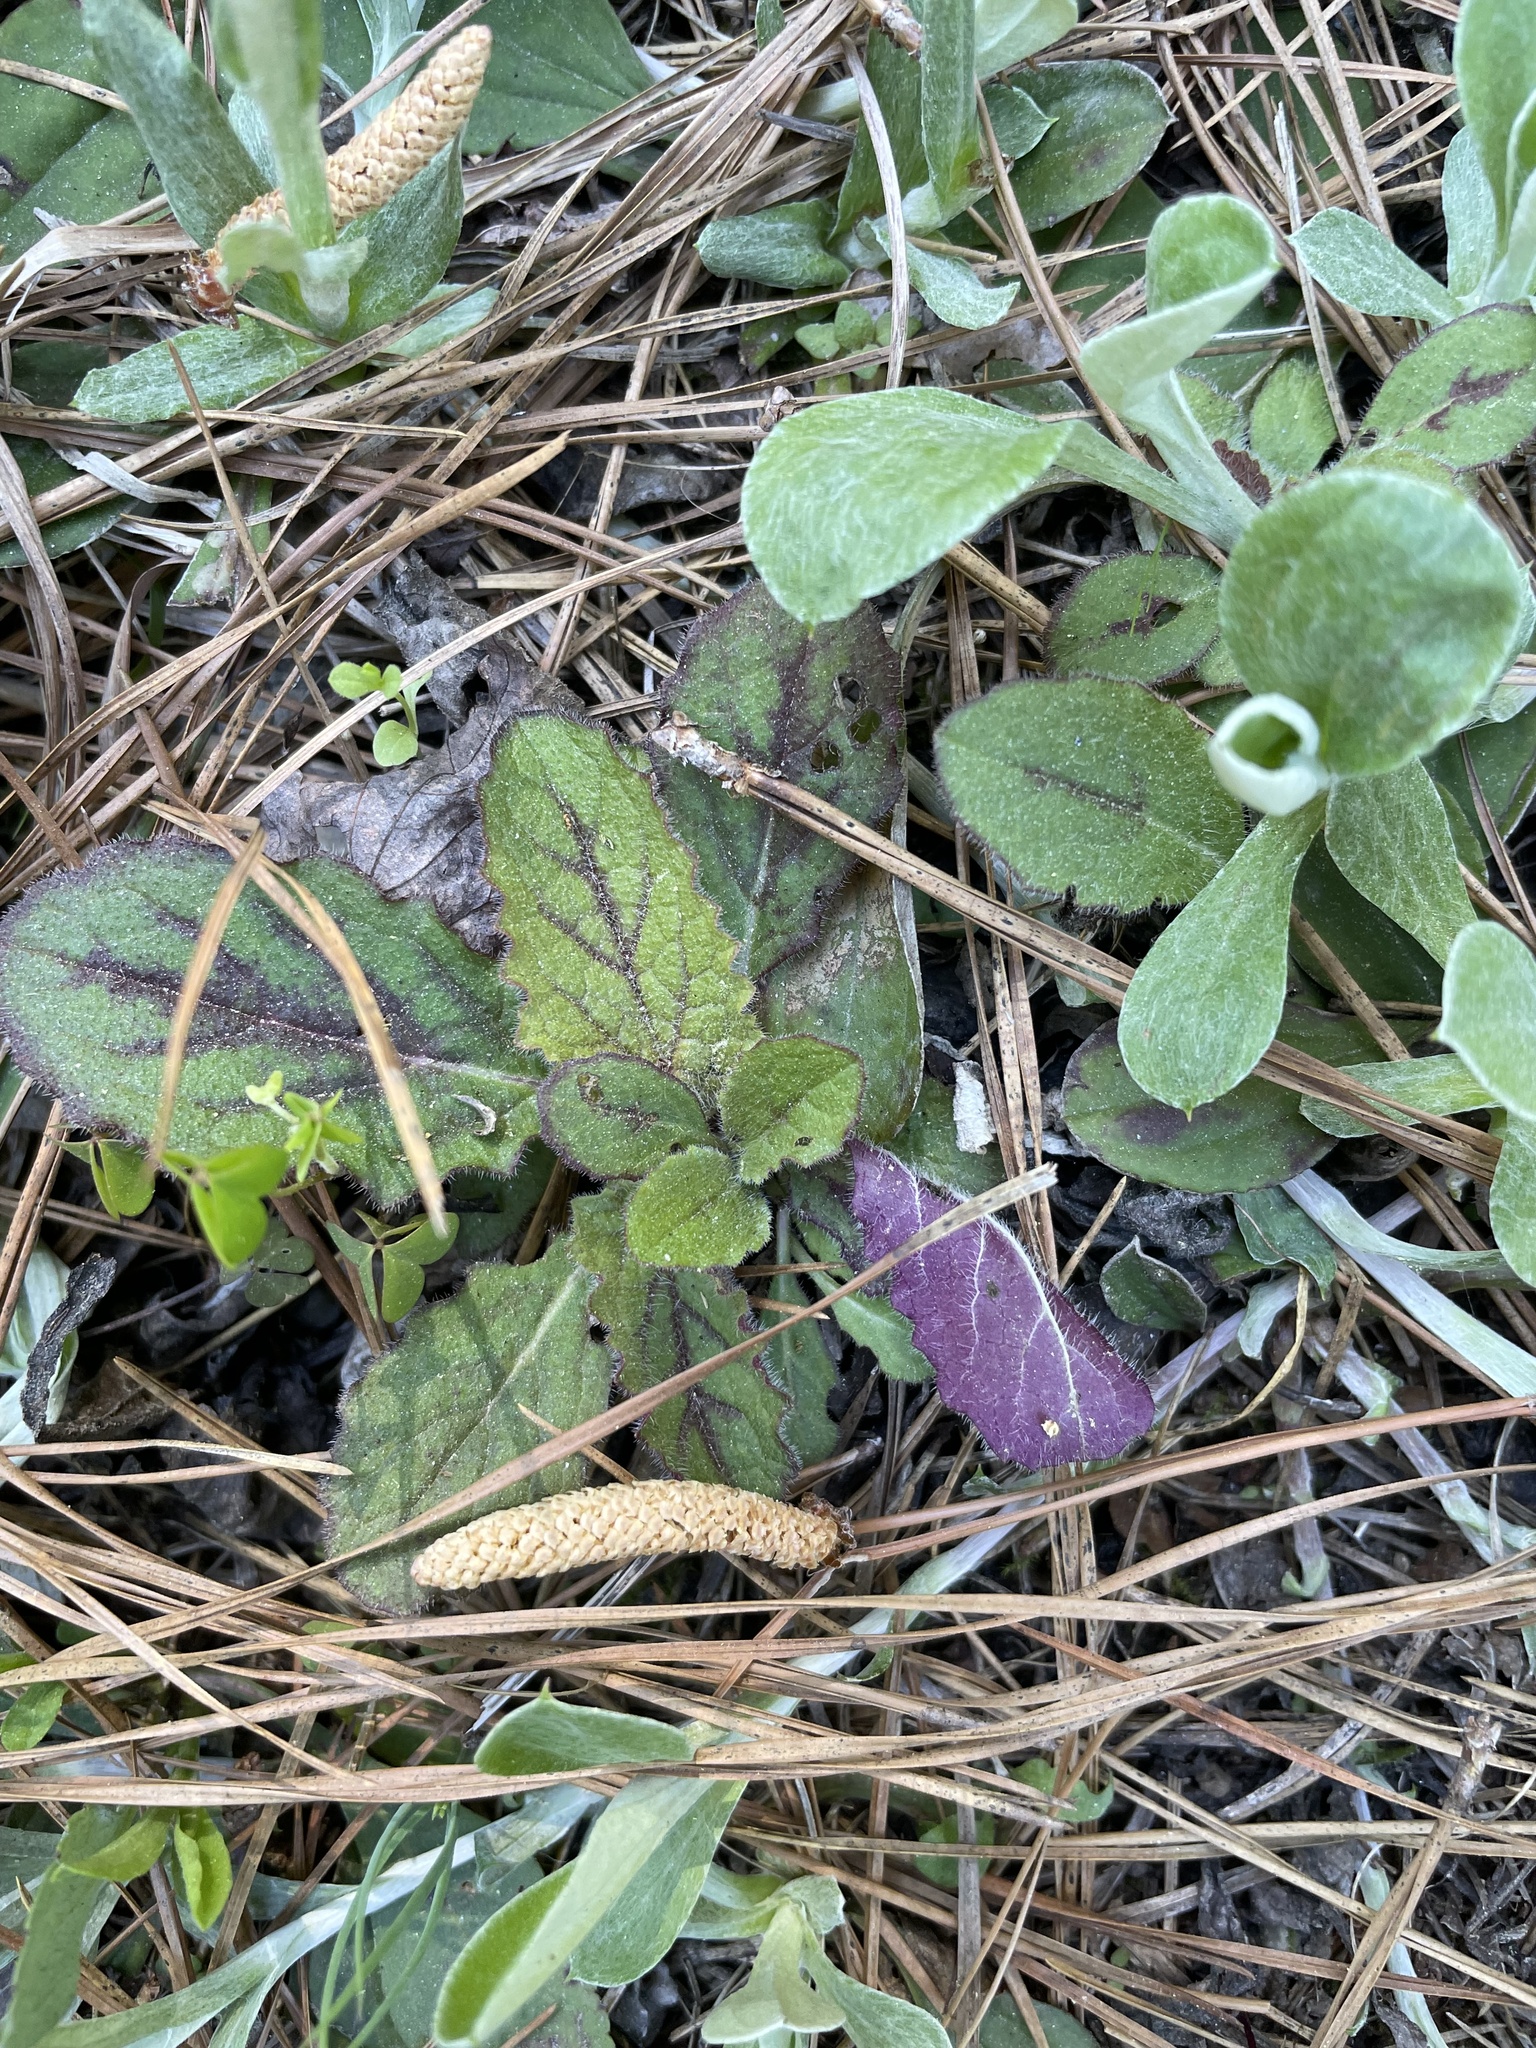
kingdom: Plantae
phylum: Tracheophyta
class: Magnoliopsida
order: Lamiales
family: Lamiaceae
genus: Salvia
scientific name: Salvia lyrata
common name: Cancerweed
